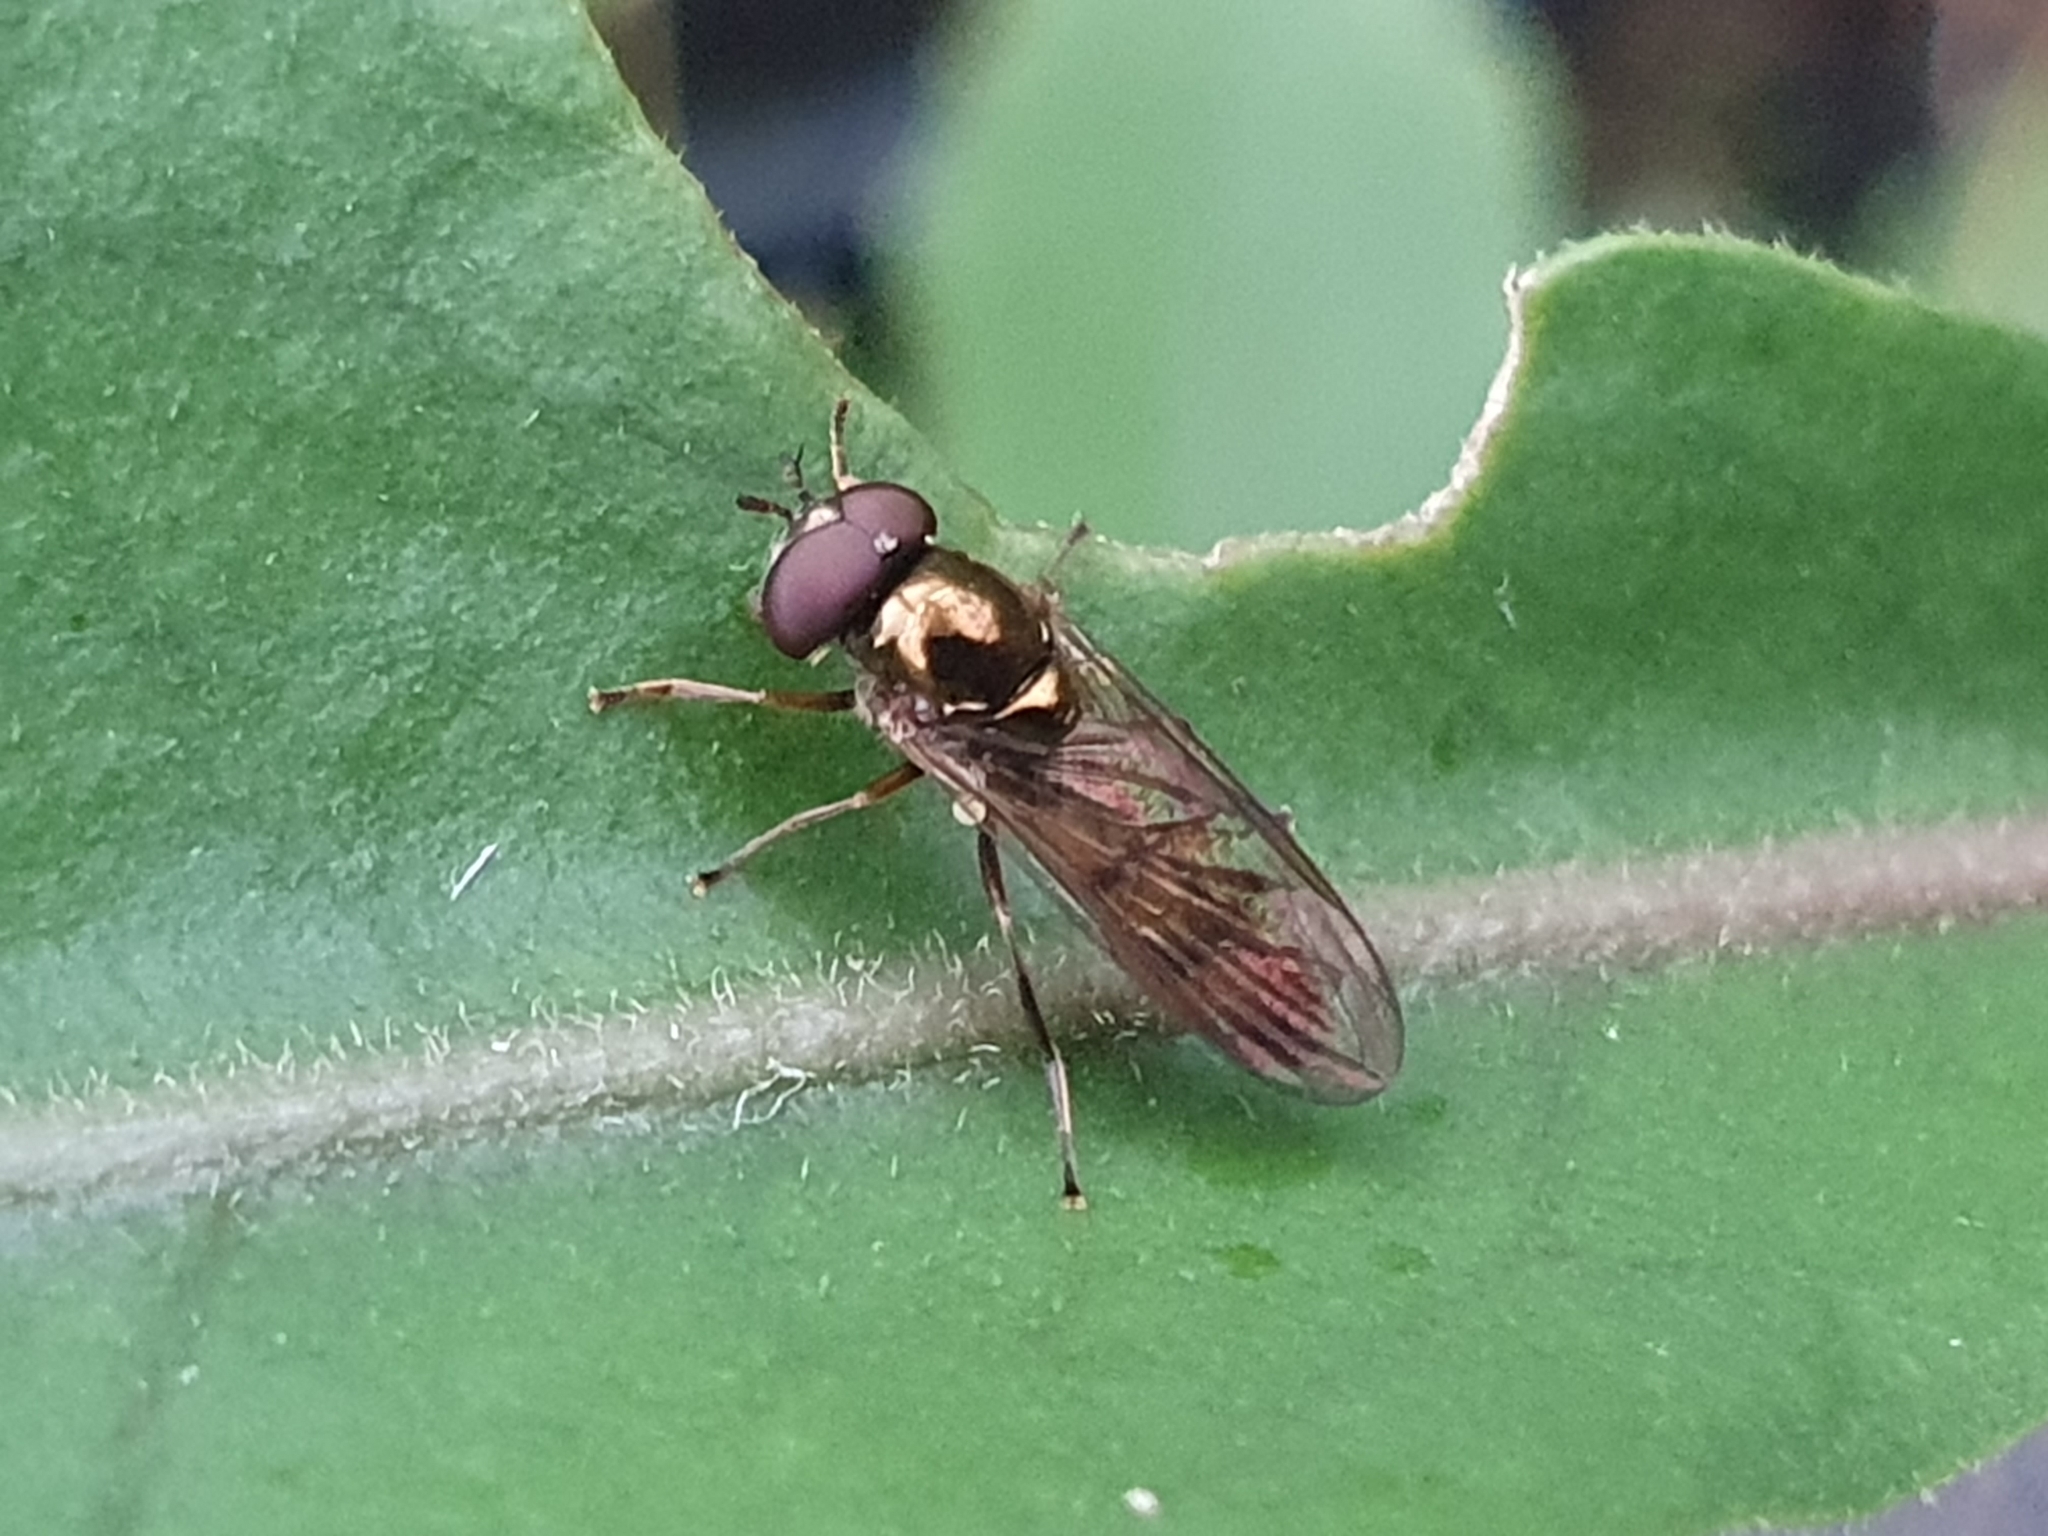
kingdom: Animalia
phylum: Arthropoda
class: Insecta
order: Diptera
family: Syrphidae
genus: Melanostoma
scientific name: Melanostoma fasciatum
